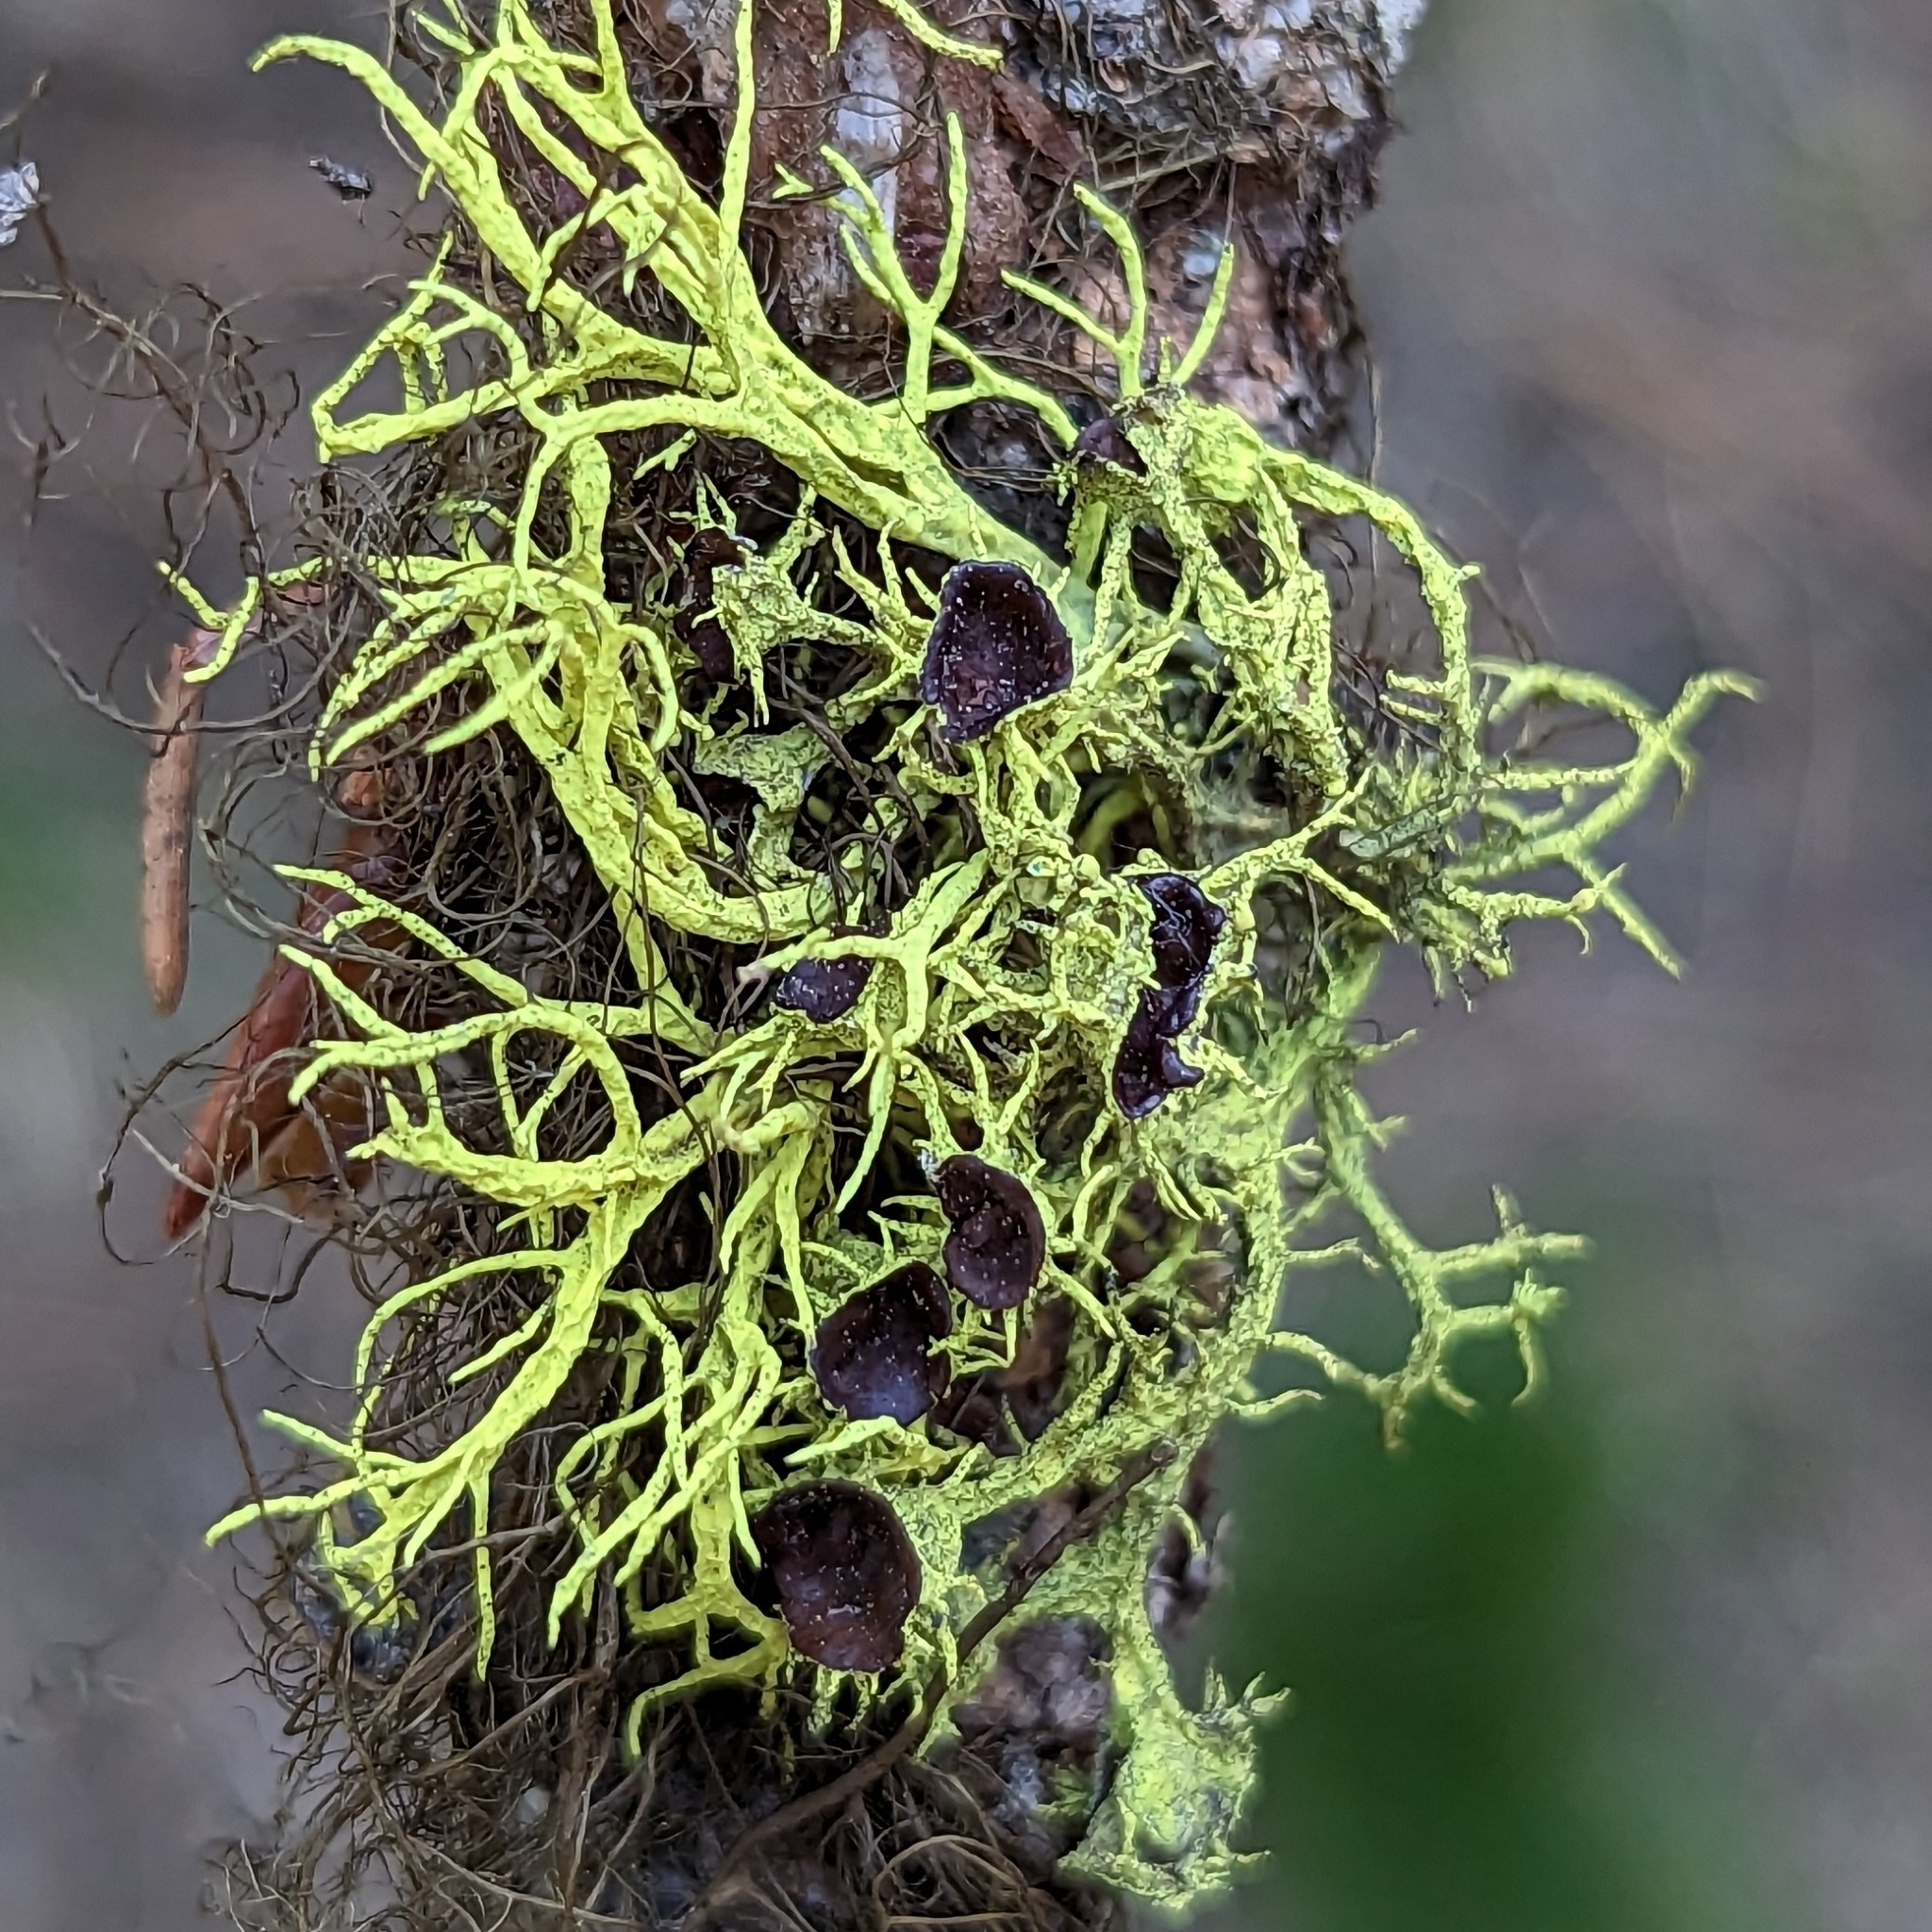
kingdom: Fungi
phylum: Ascomycota
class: Lecanoromycetes
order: Lecanorales
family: Parmeliaceae
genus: Letharia
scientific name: Letharia columbiana
